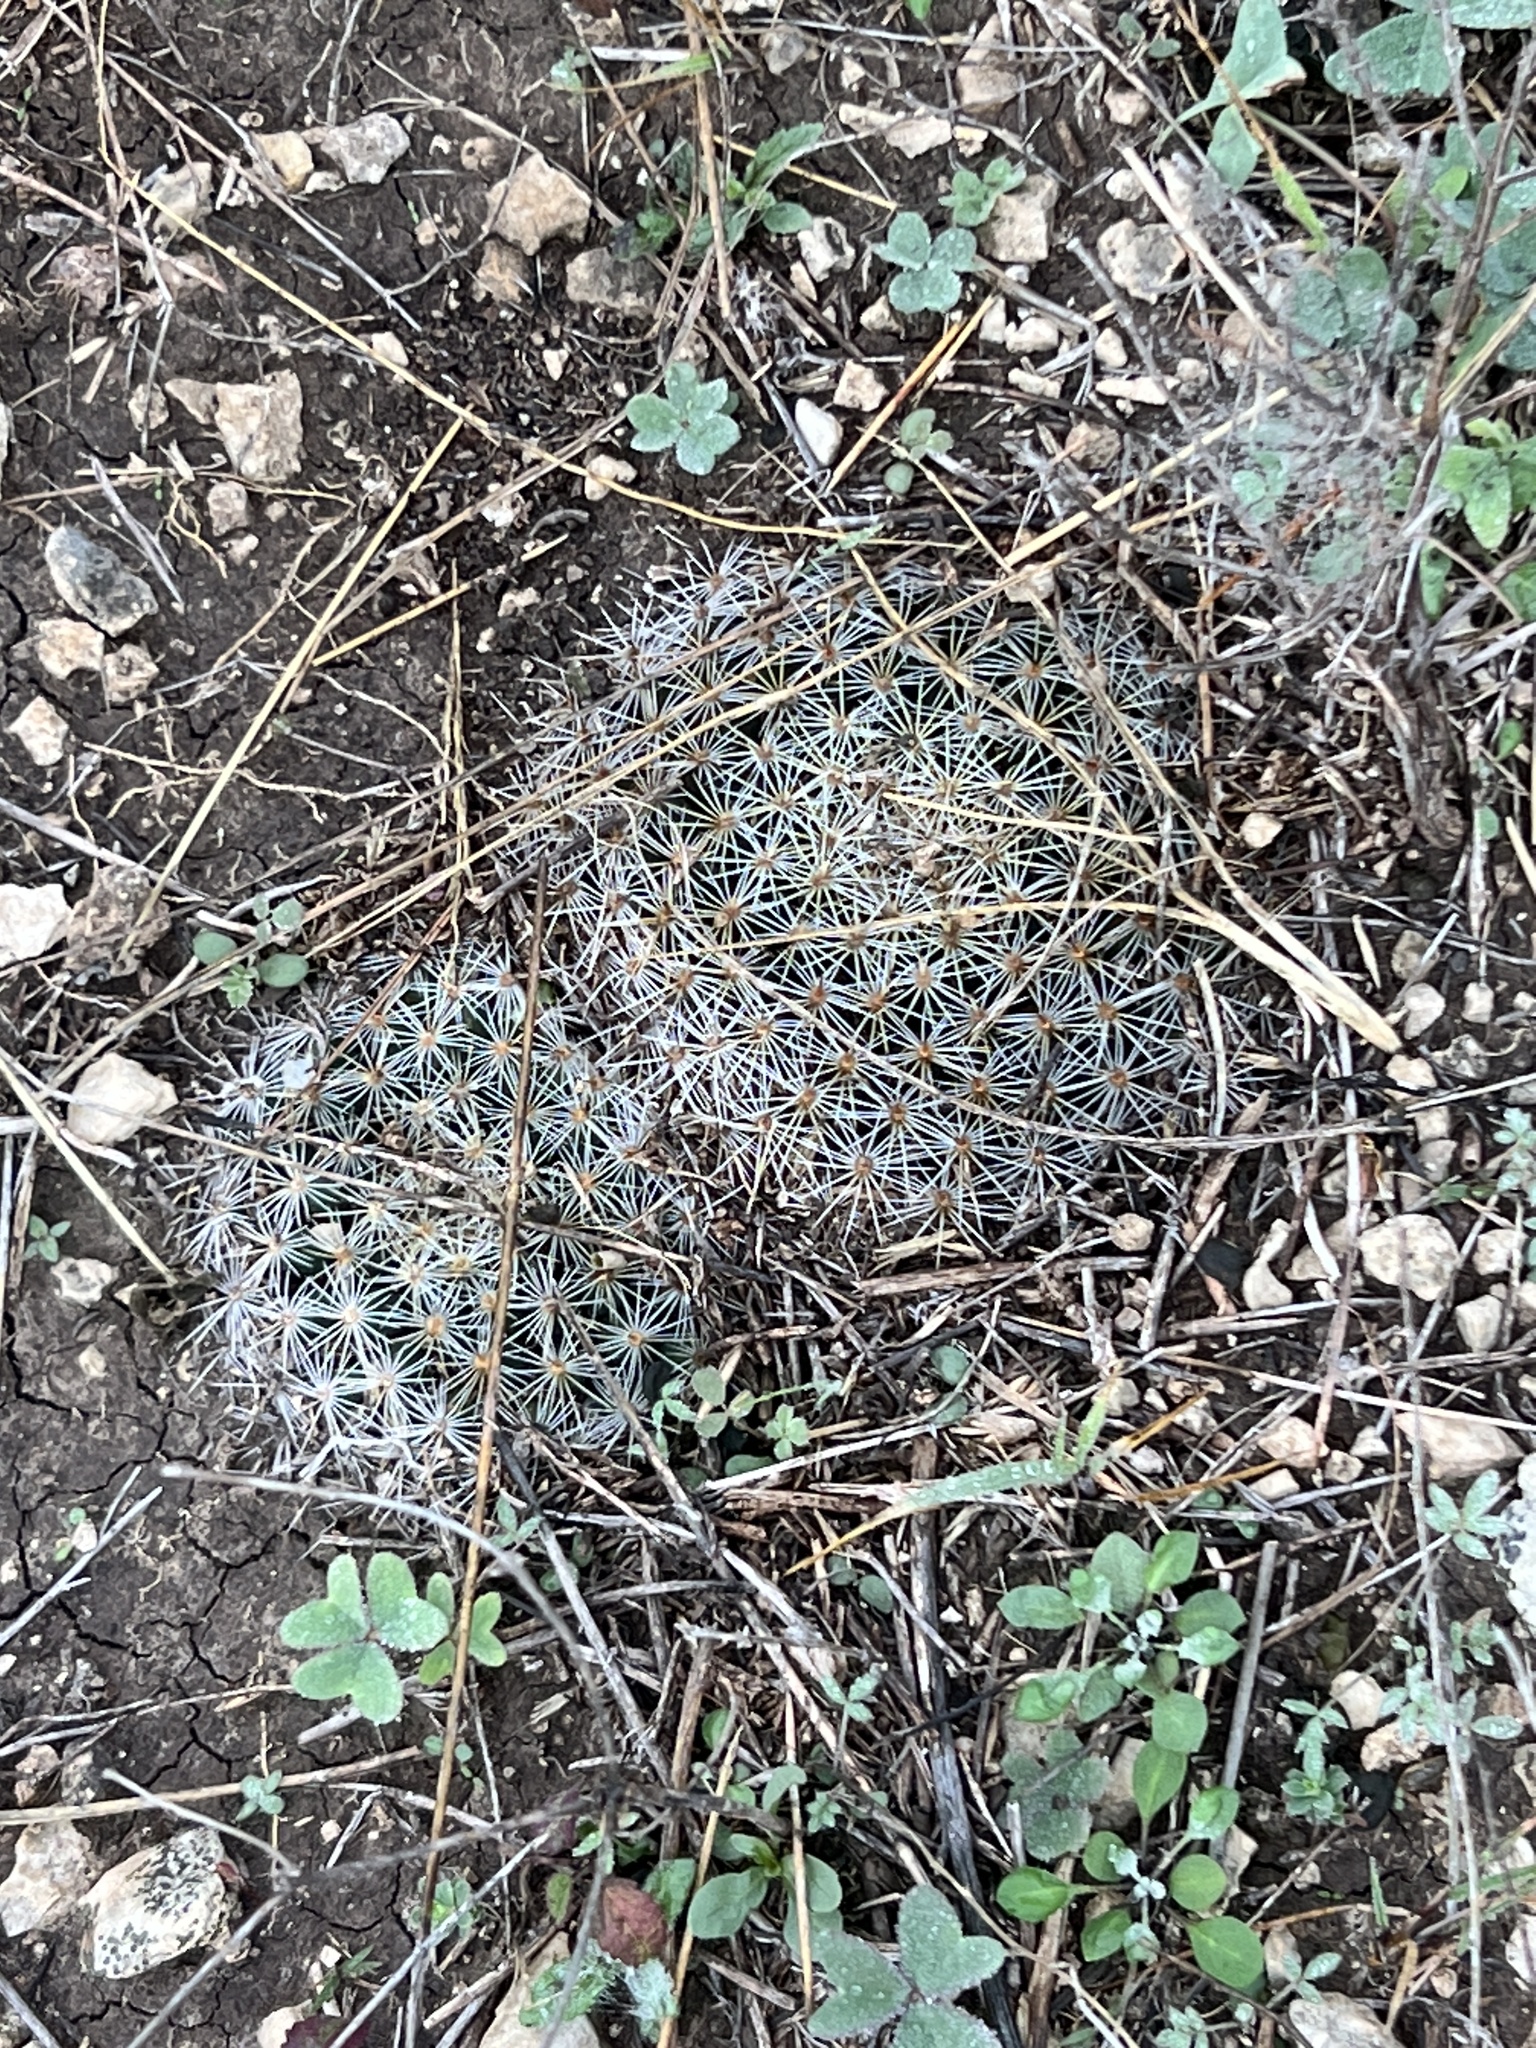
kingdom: Plantae
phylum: Tracheophyta
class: Magnoliopsida
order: Caryophyllales
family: Cactaceae
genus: Mammillaria
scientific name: Mammillaria heyderi
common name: Little nipple cactus
